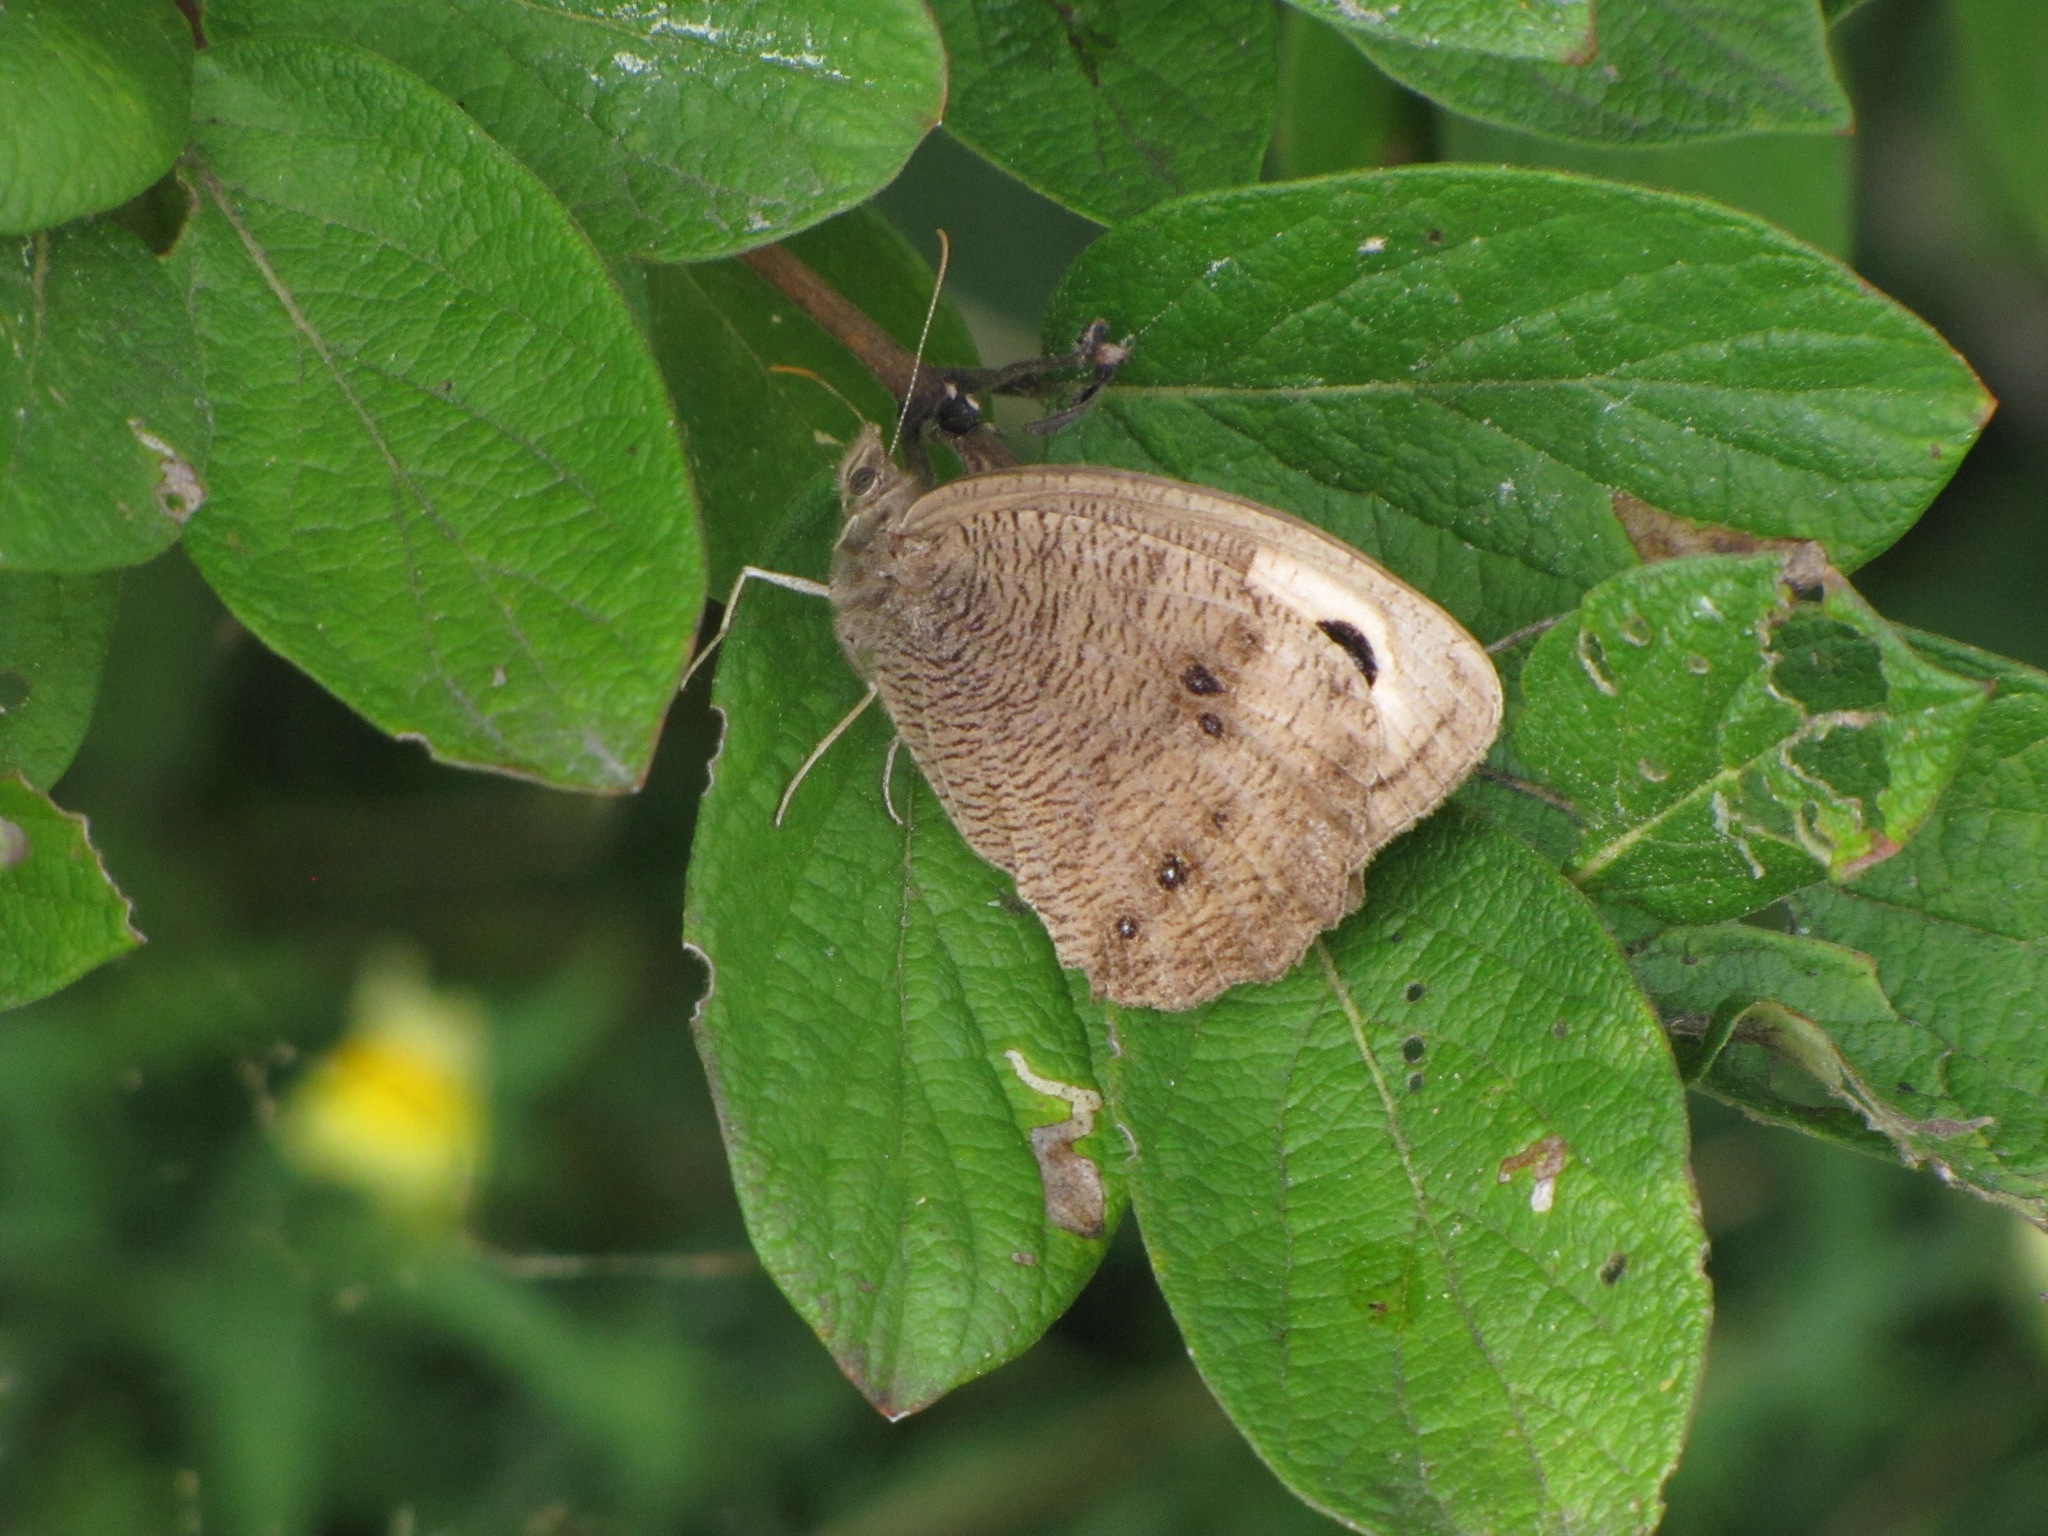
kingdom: Animalia
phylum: Arthropoda
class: Insecta
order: Lepidoptera
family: Nymphalidae
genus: Cercyonis
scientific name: Cercyonis pegala
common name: Common wood-nymph
